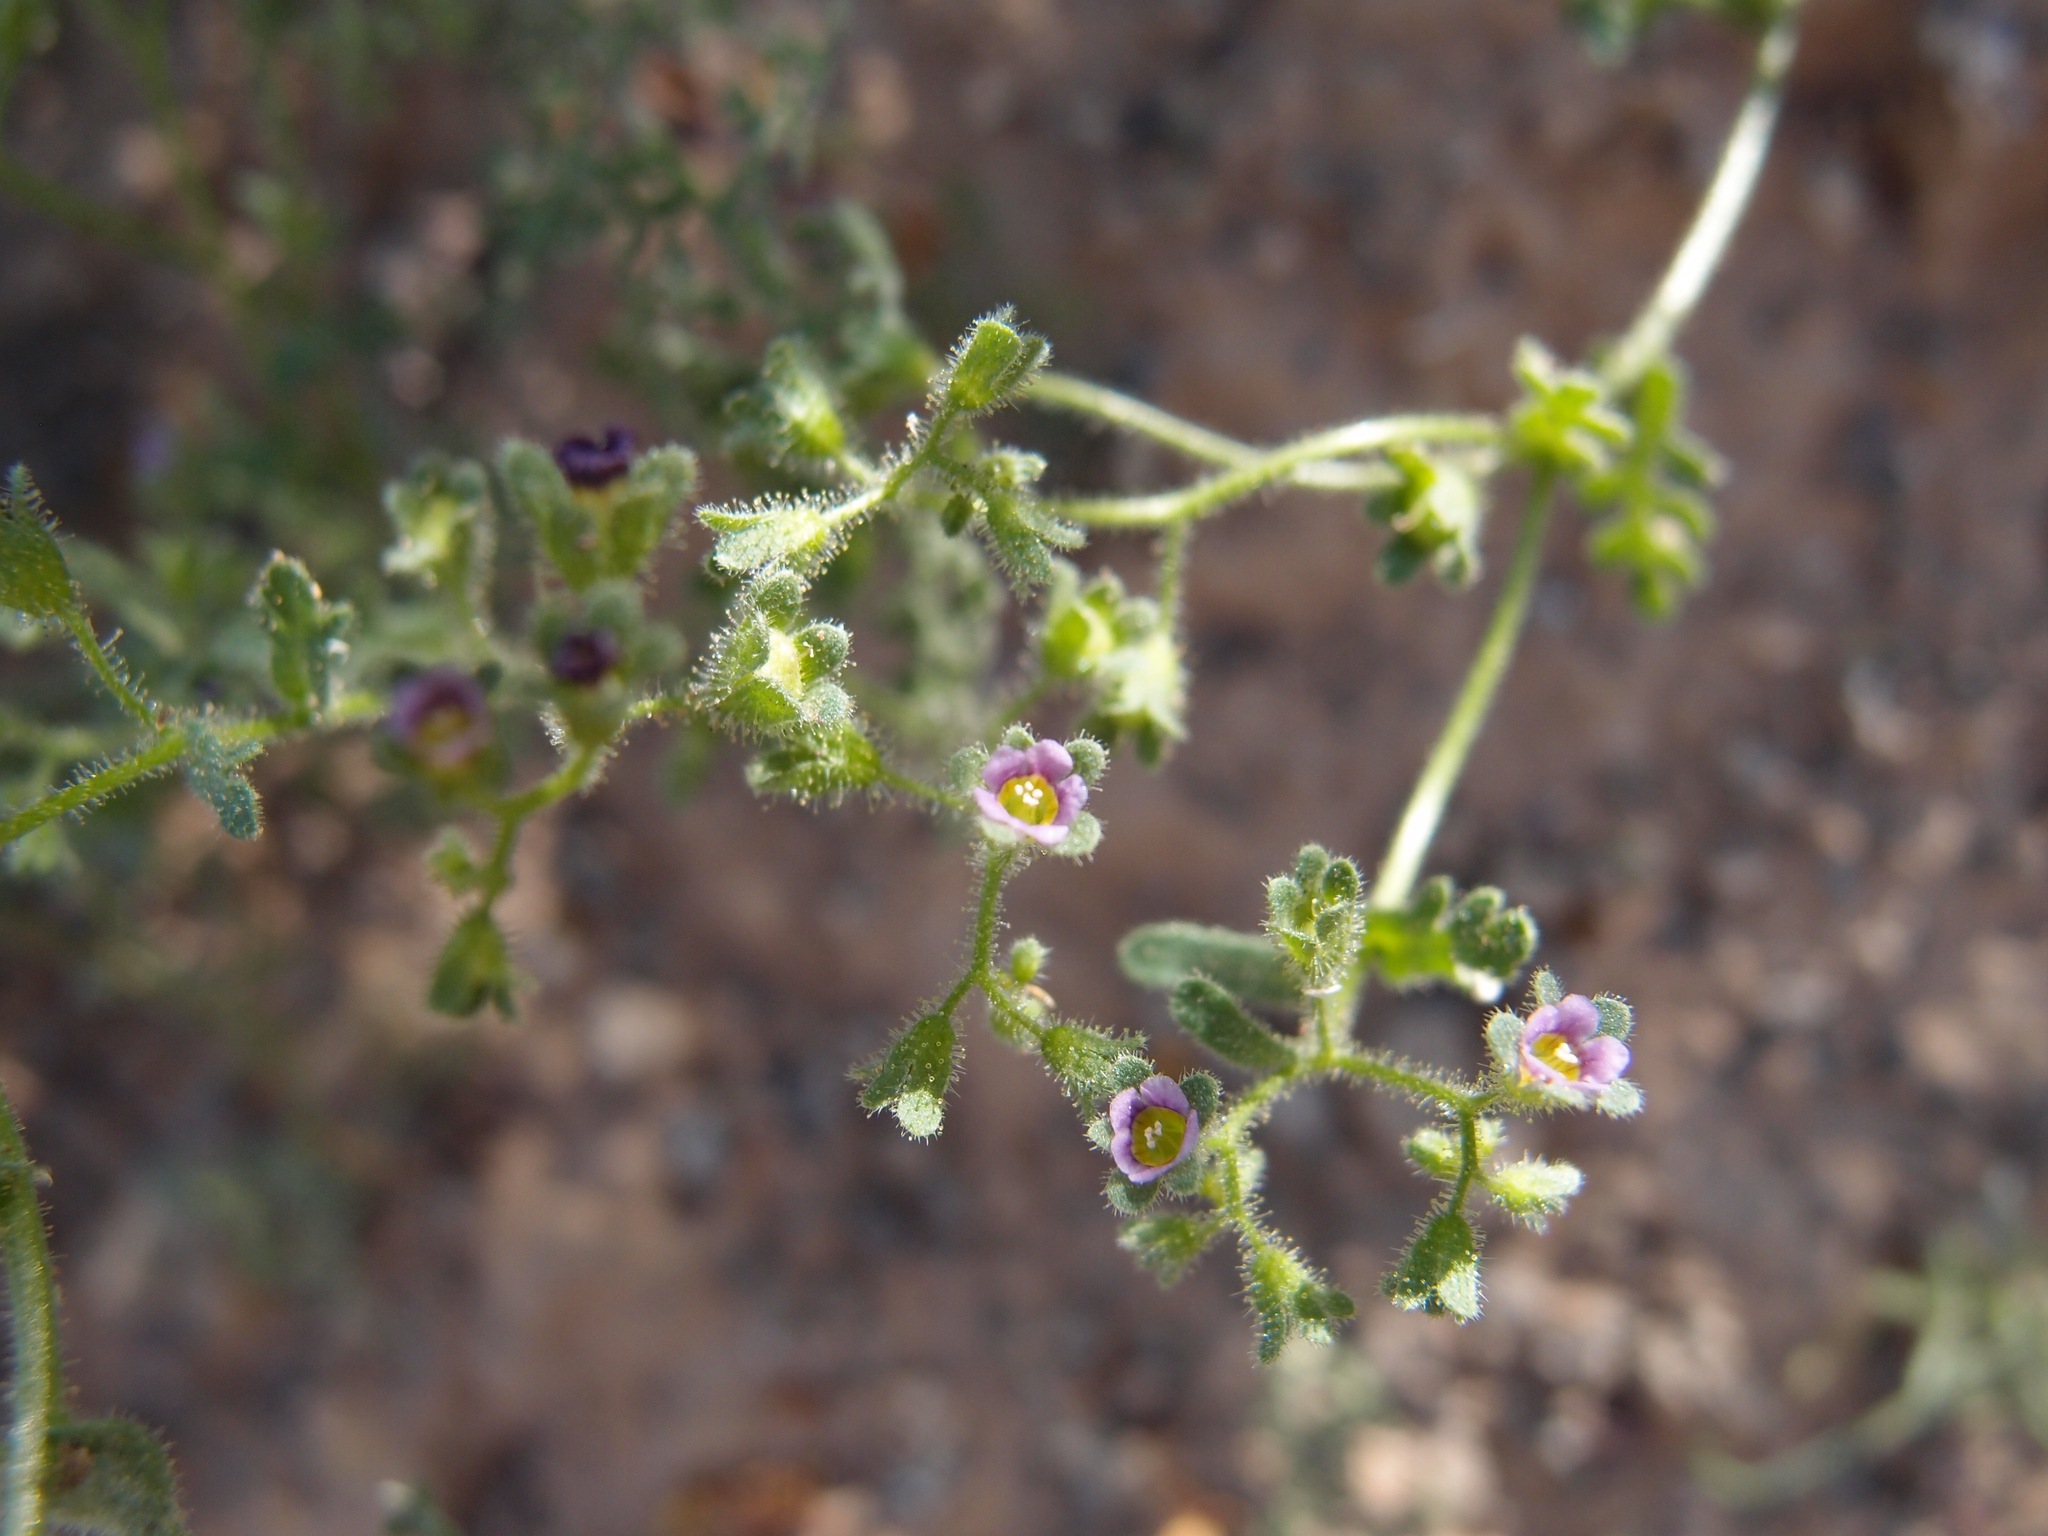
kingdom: Plantae
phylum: Tracheophyta
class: Magnoliopsida
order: Boraginales
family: Hydrophyllaceae
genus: Eucrypta
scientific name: Eucrypta micrantha
